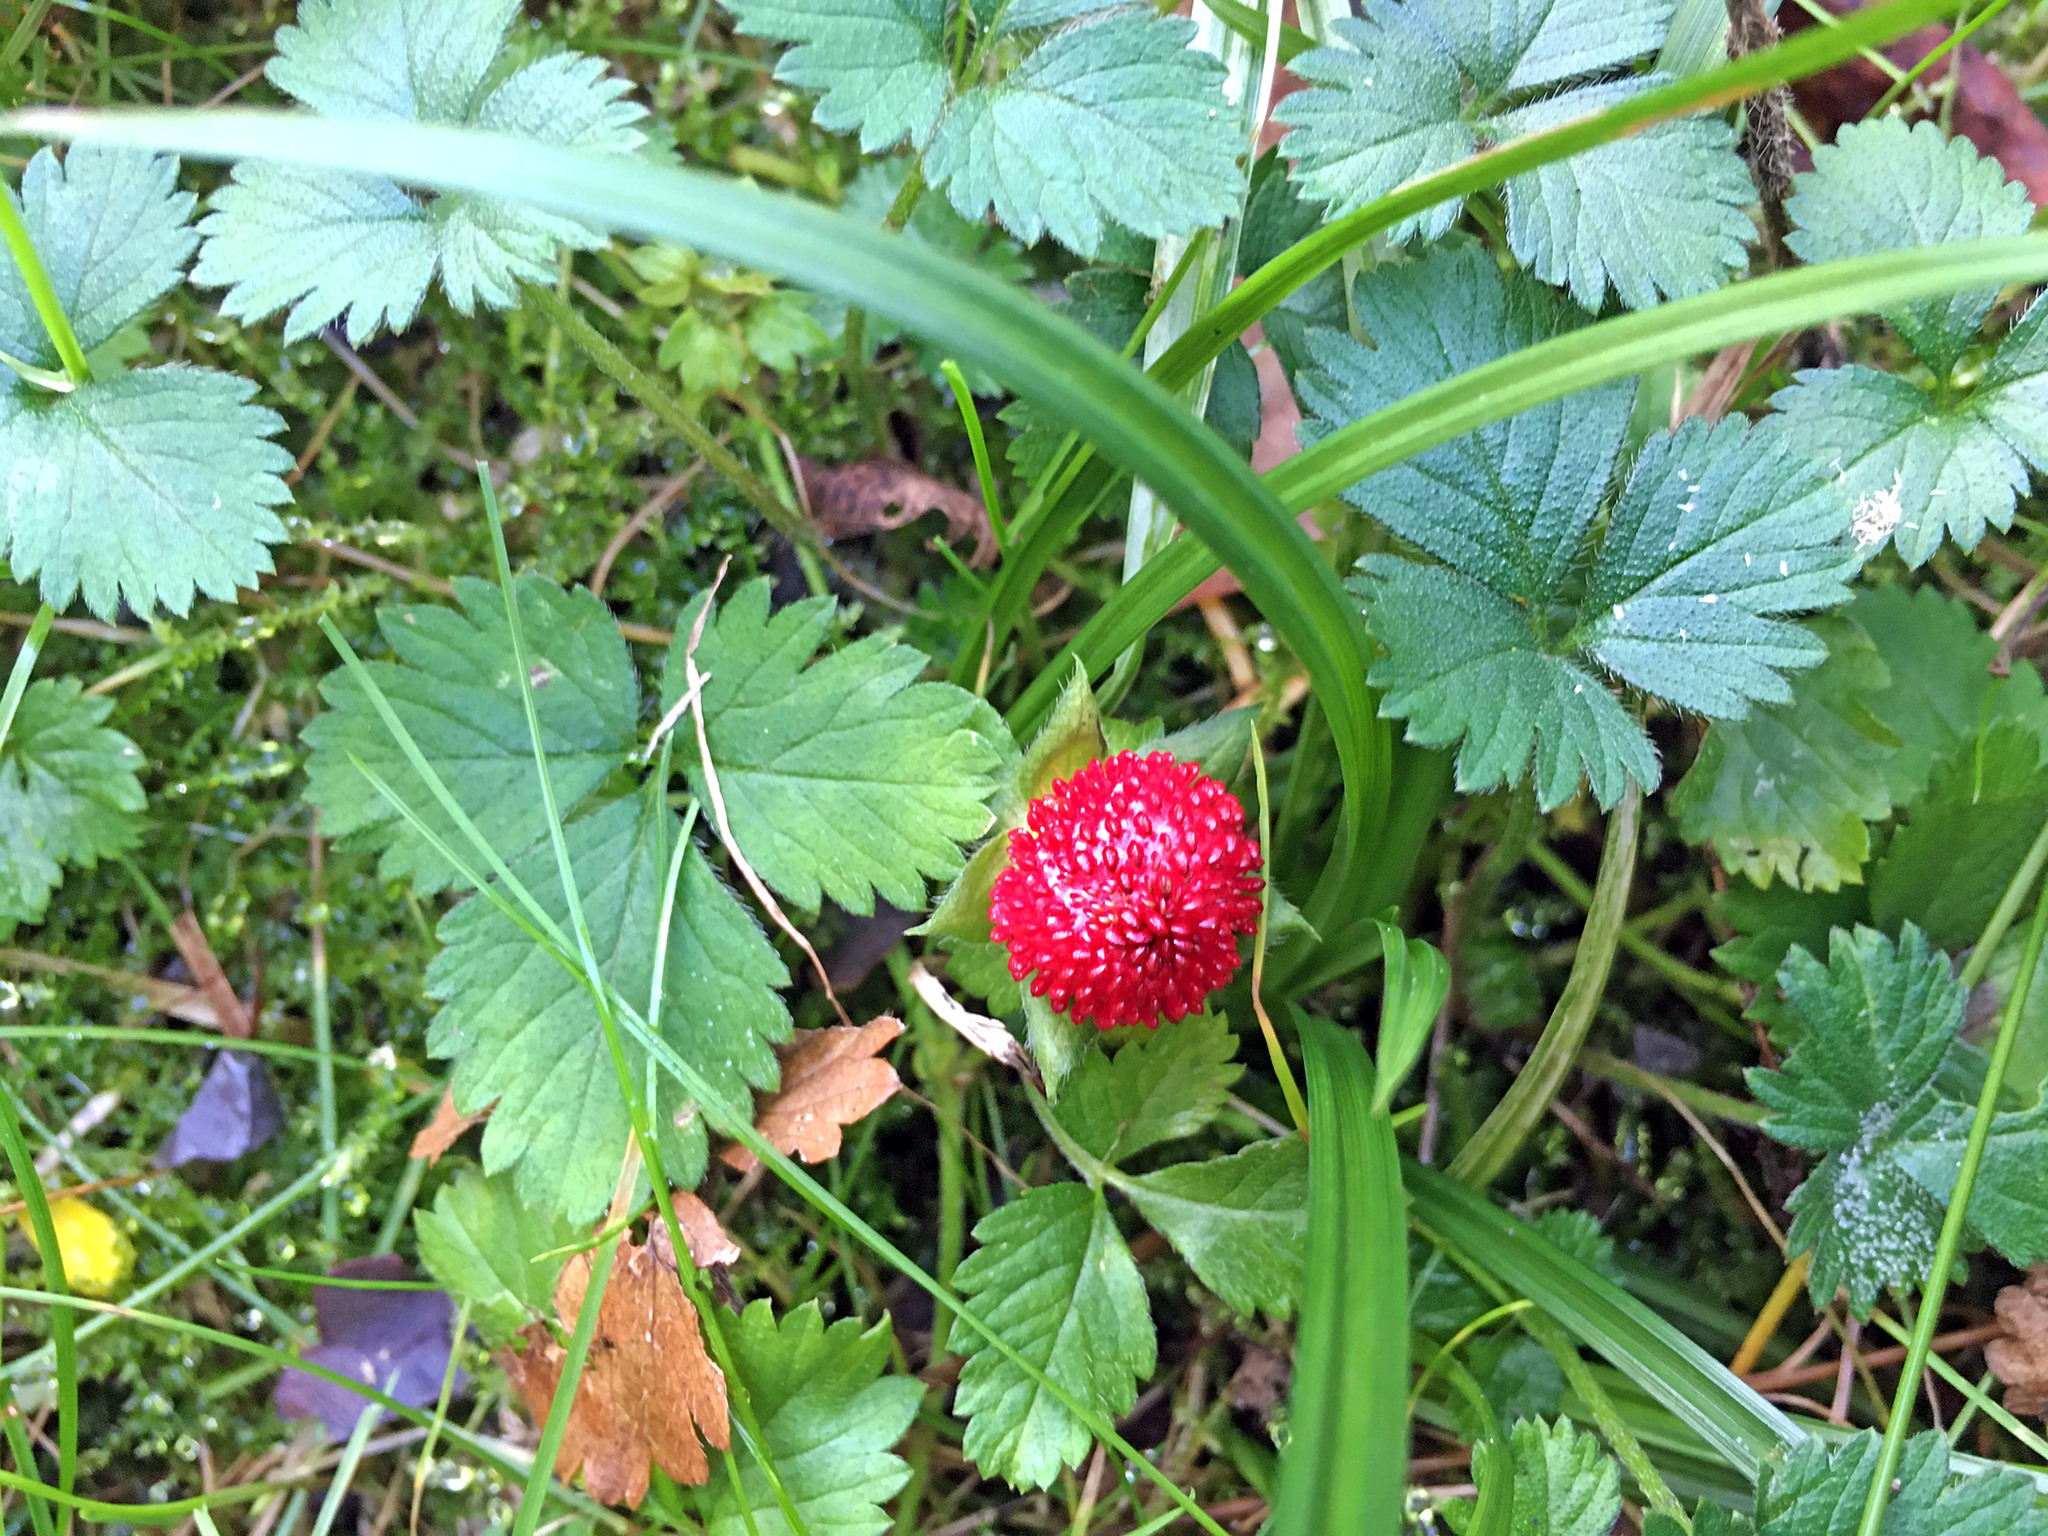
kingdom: Plantae
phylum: Tracheophyta
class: Magnoliopsida
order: Rosales
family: Rosaceae
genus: Potentilla
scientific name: Potentilla indica
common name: Yellow-flowered strawberry
